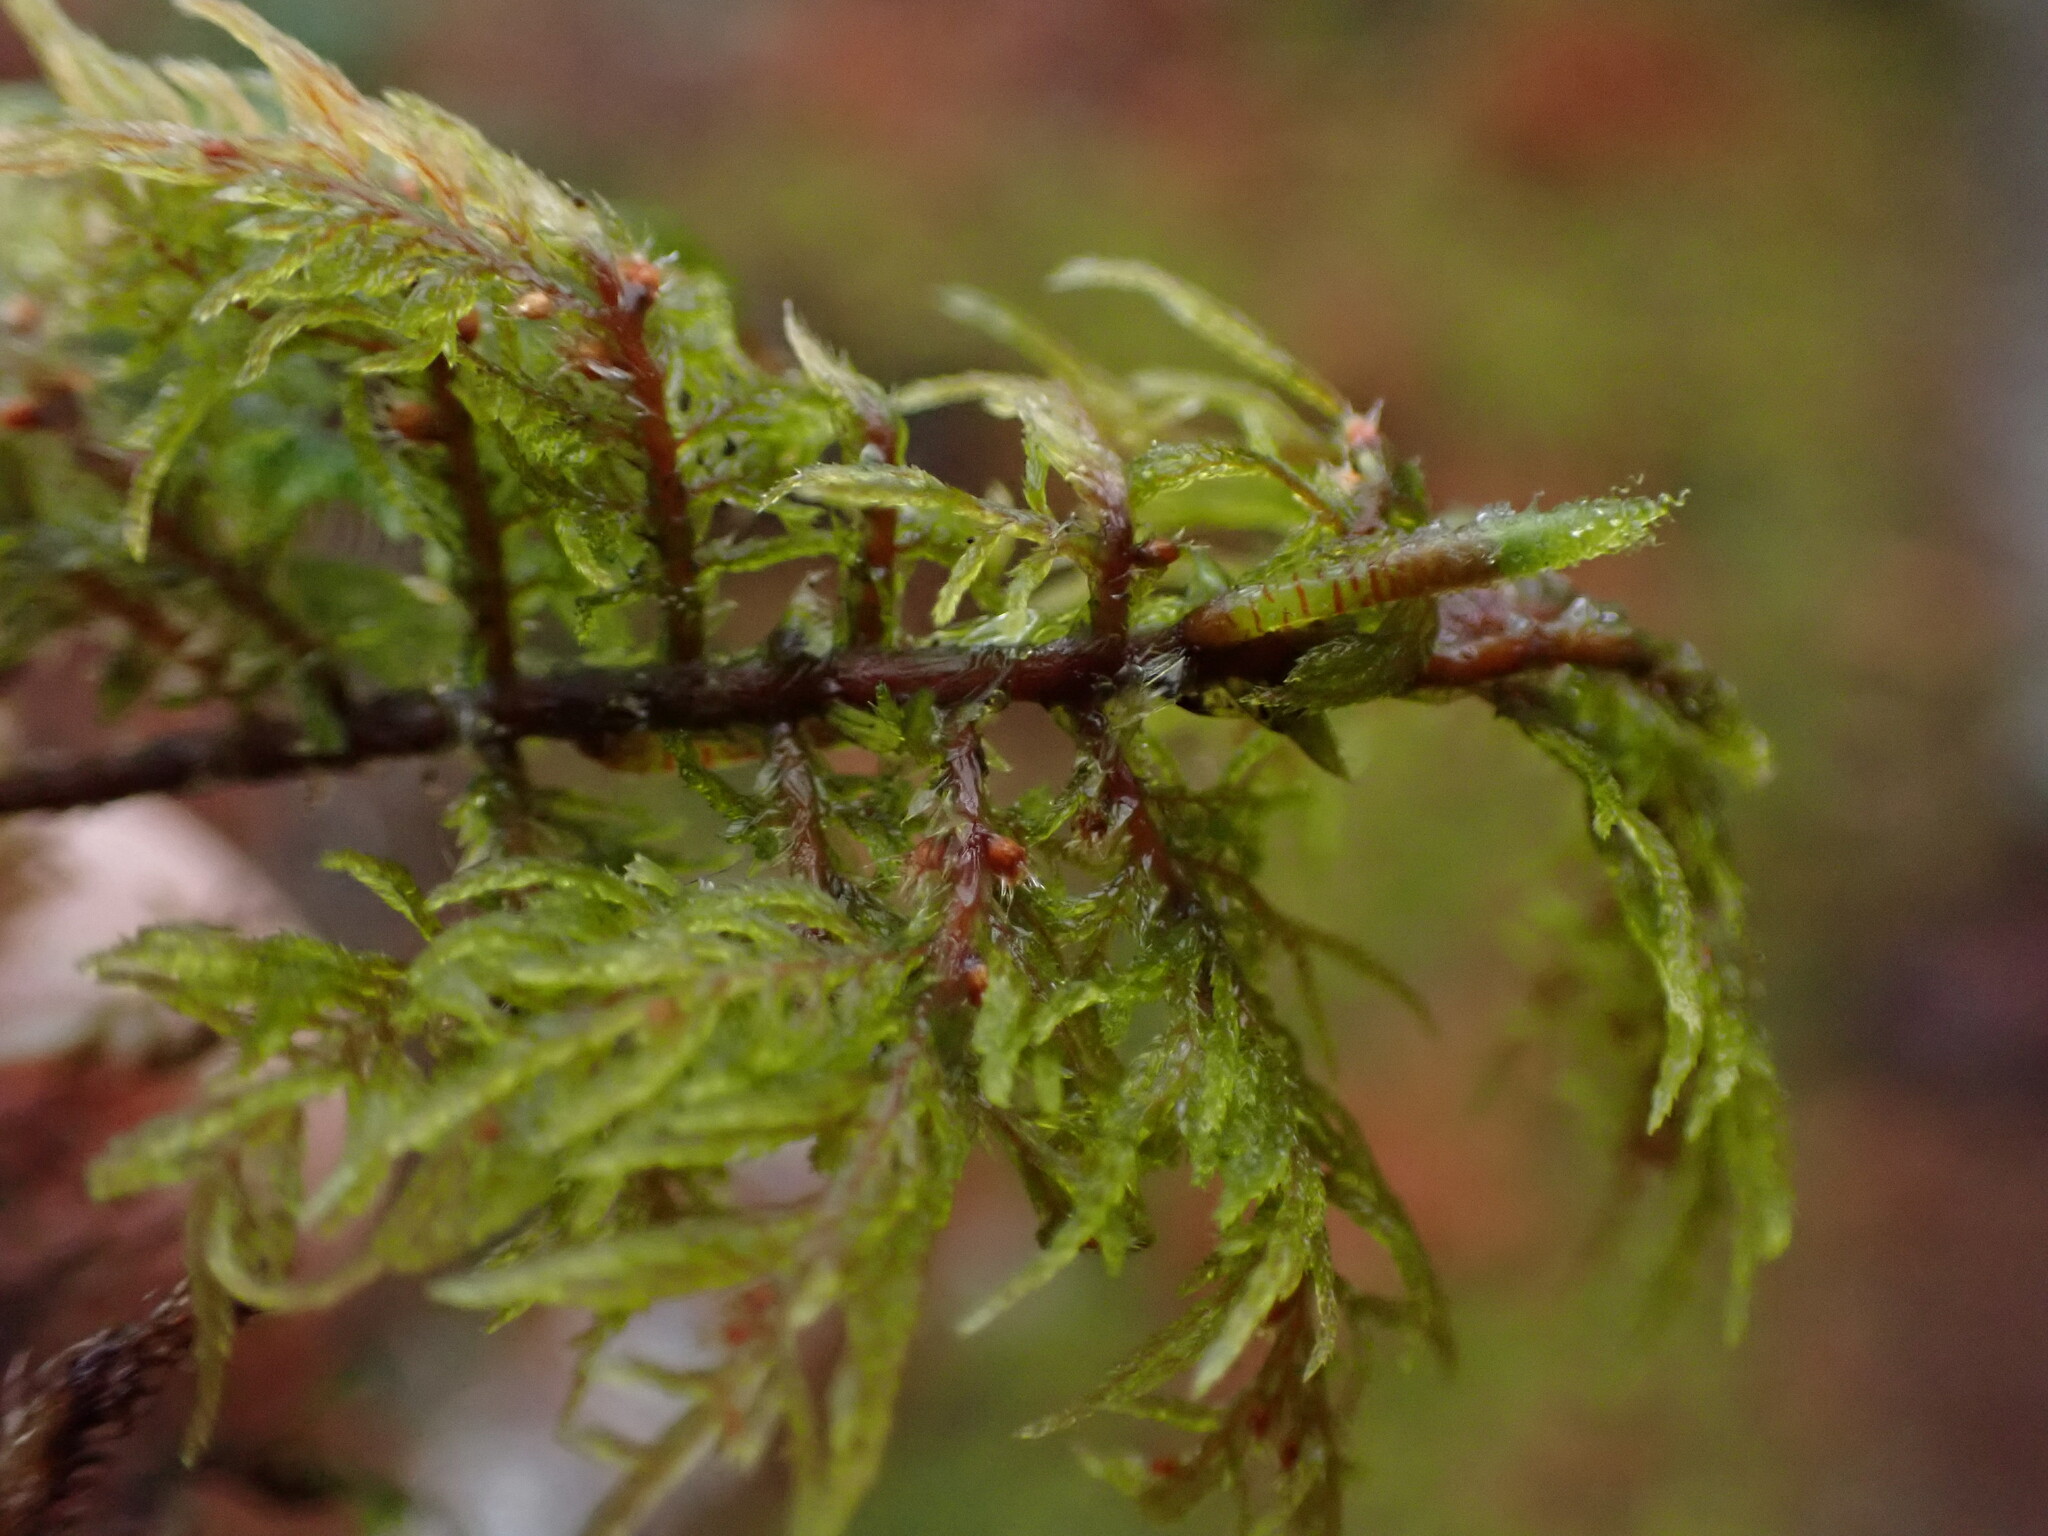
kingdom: Plantae
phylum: Bryophyta
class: Bryopsida
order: Hypnales
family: Hylocomiaceae
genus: Hylocomium
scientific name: Hylocomium splendens
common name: Stairstep moss
